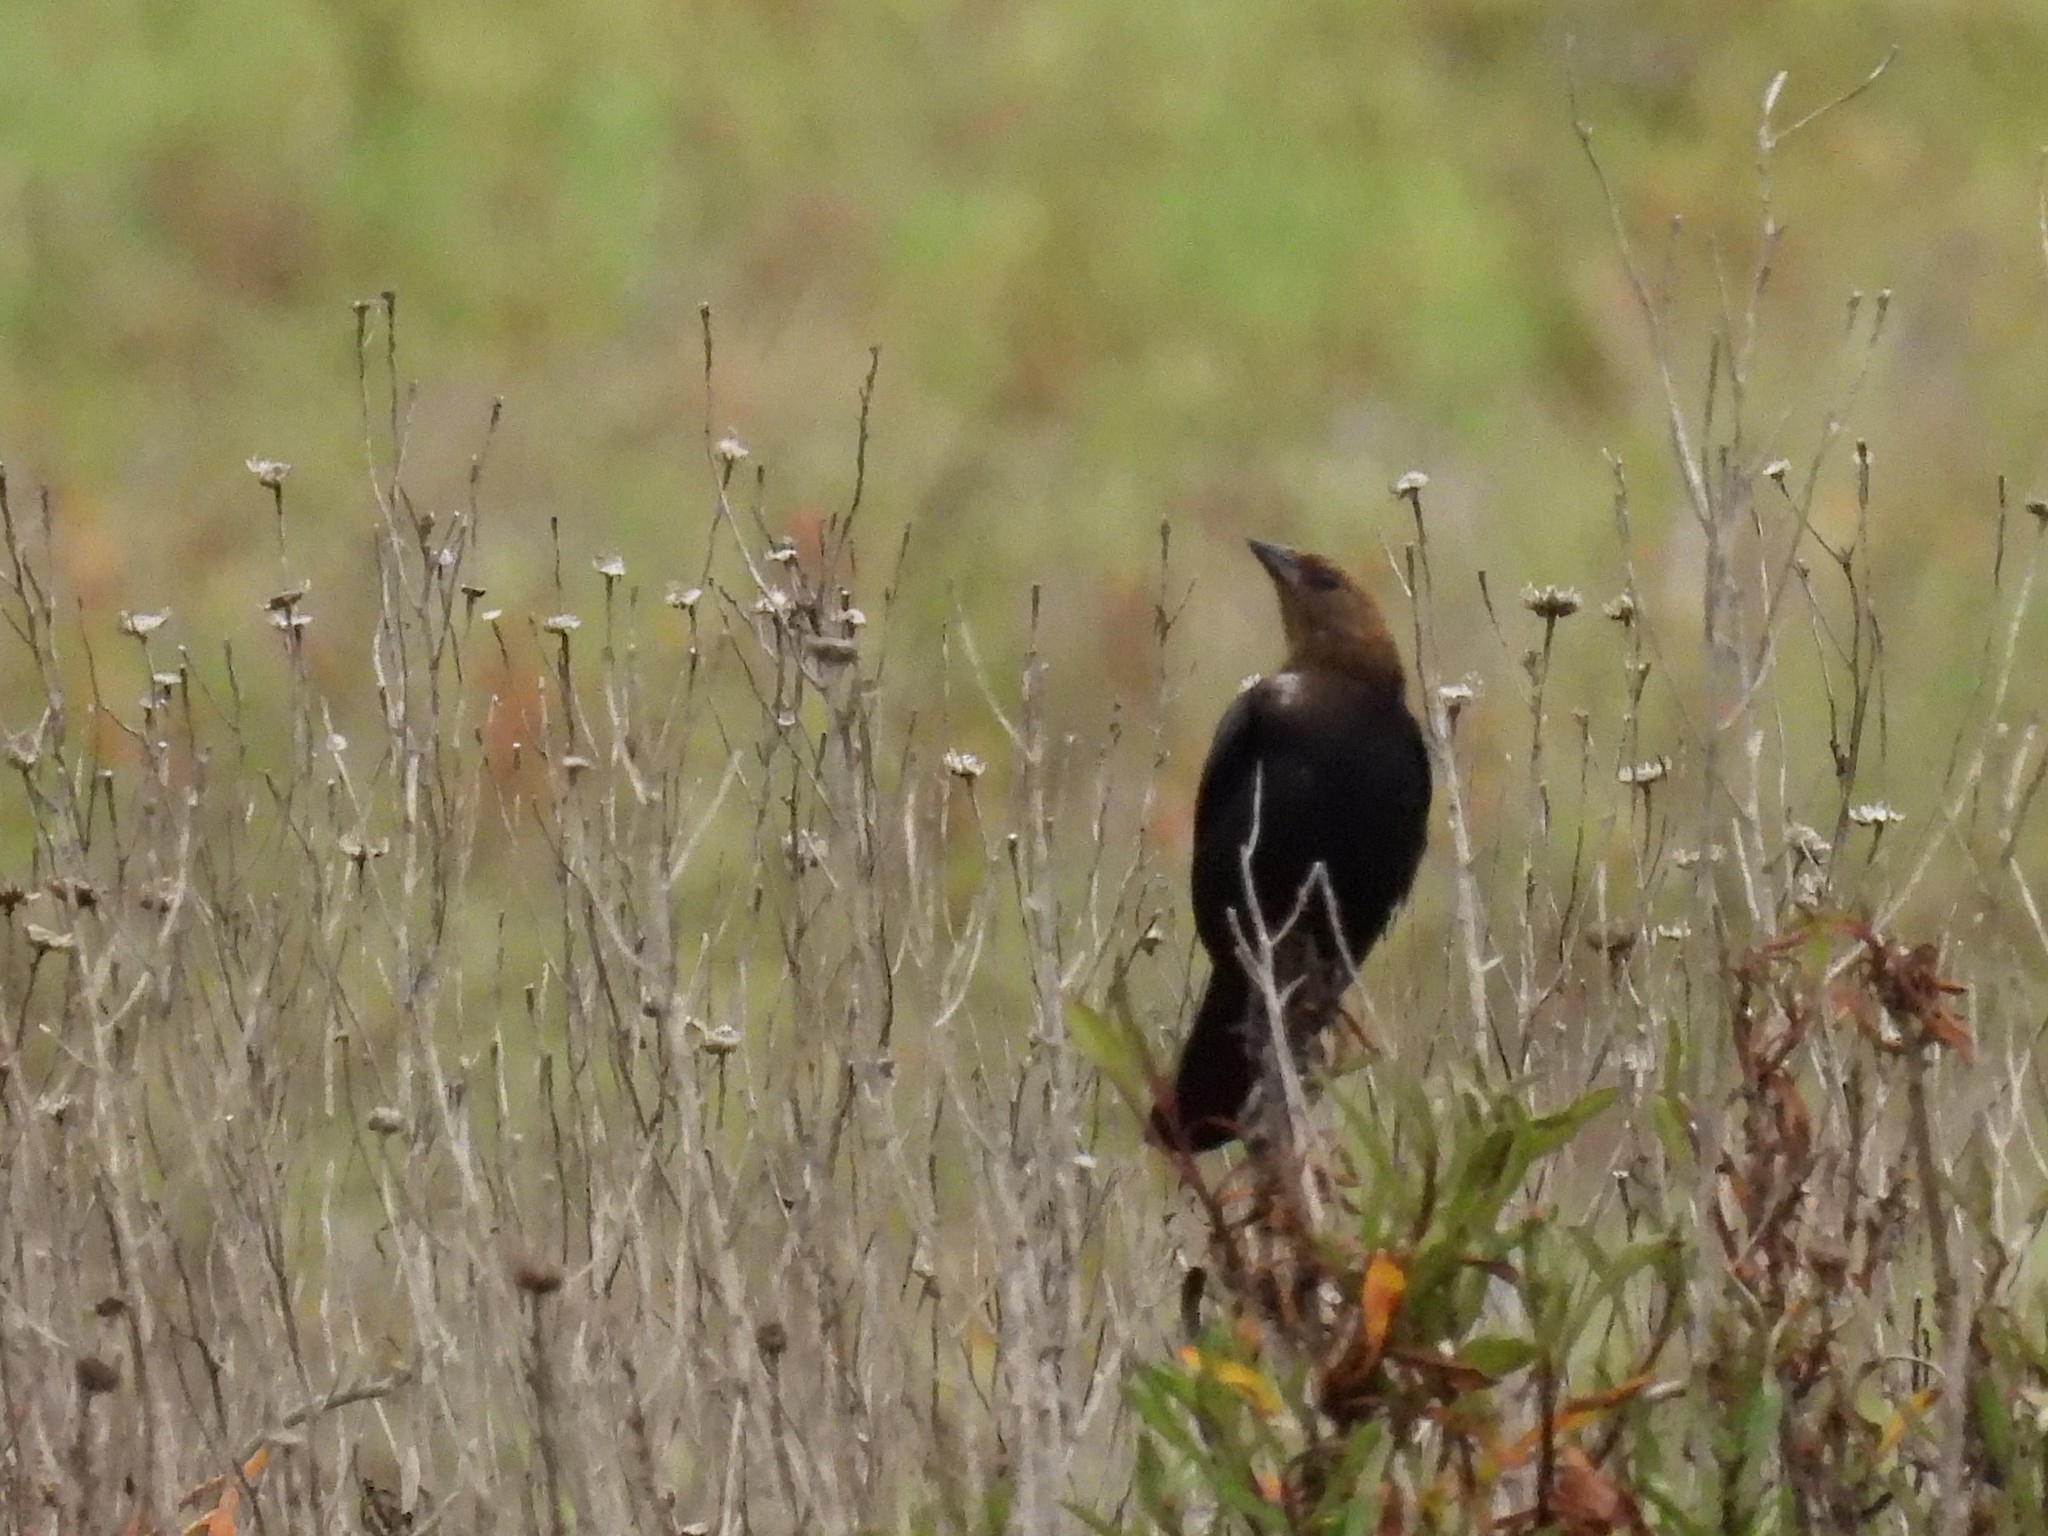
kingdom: Animalia
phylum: Chordata
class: Aves
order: Passeriformes
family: Icteridae
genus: Molothrus
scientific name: Molothrus ater
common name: Brown-headed cowbird
